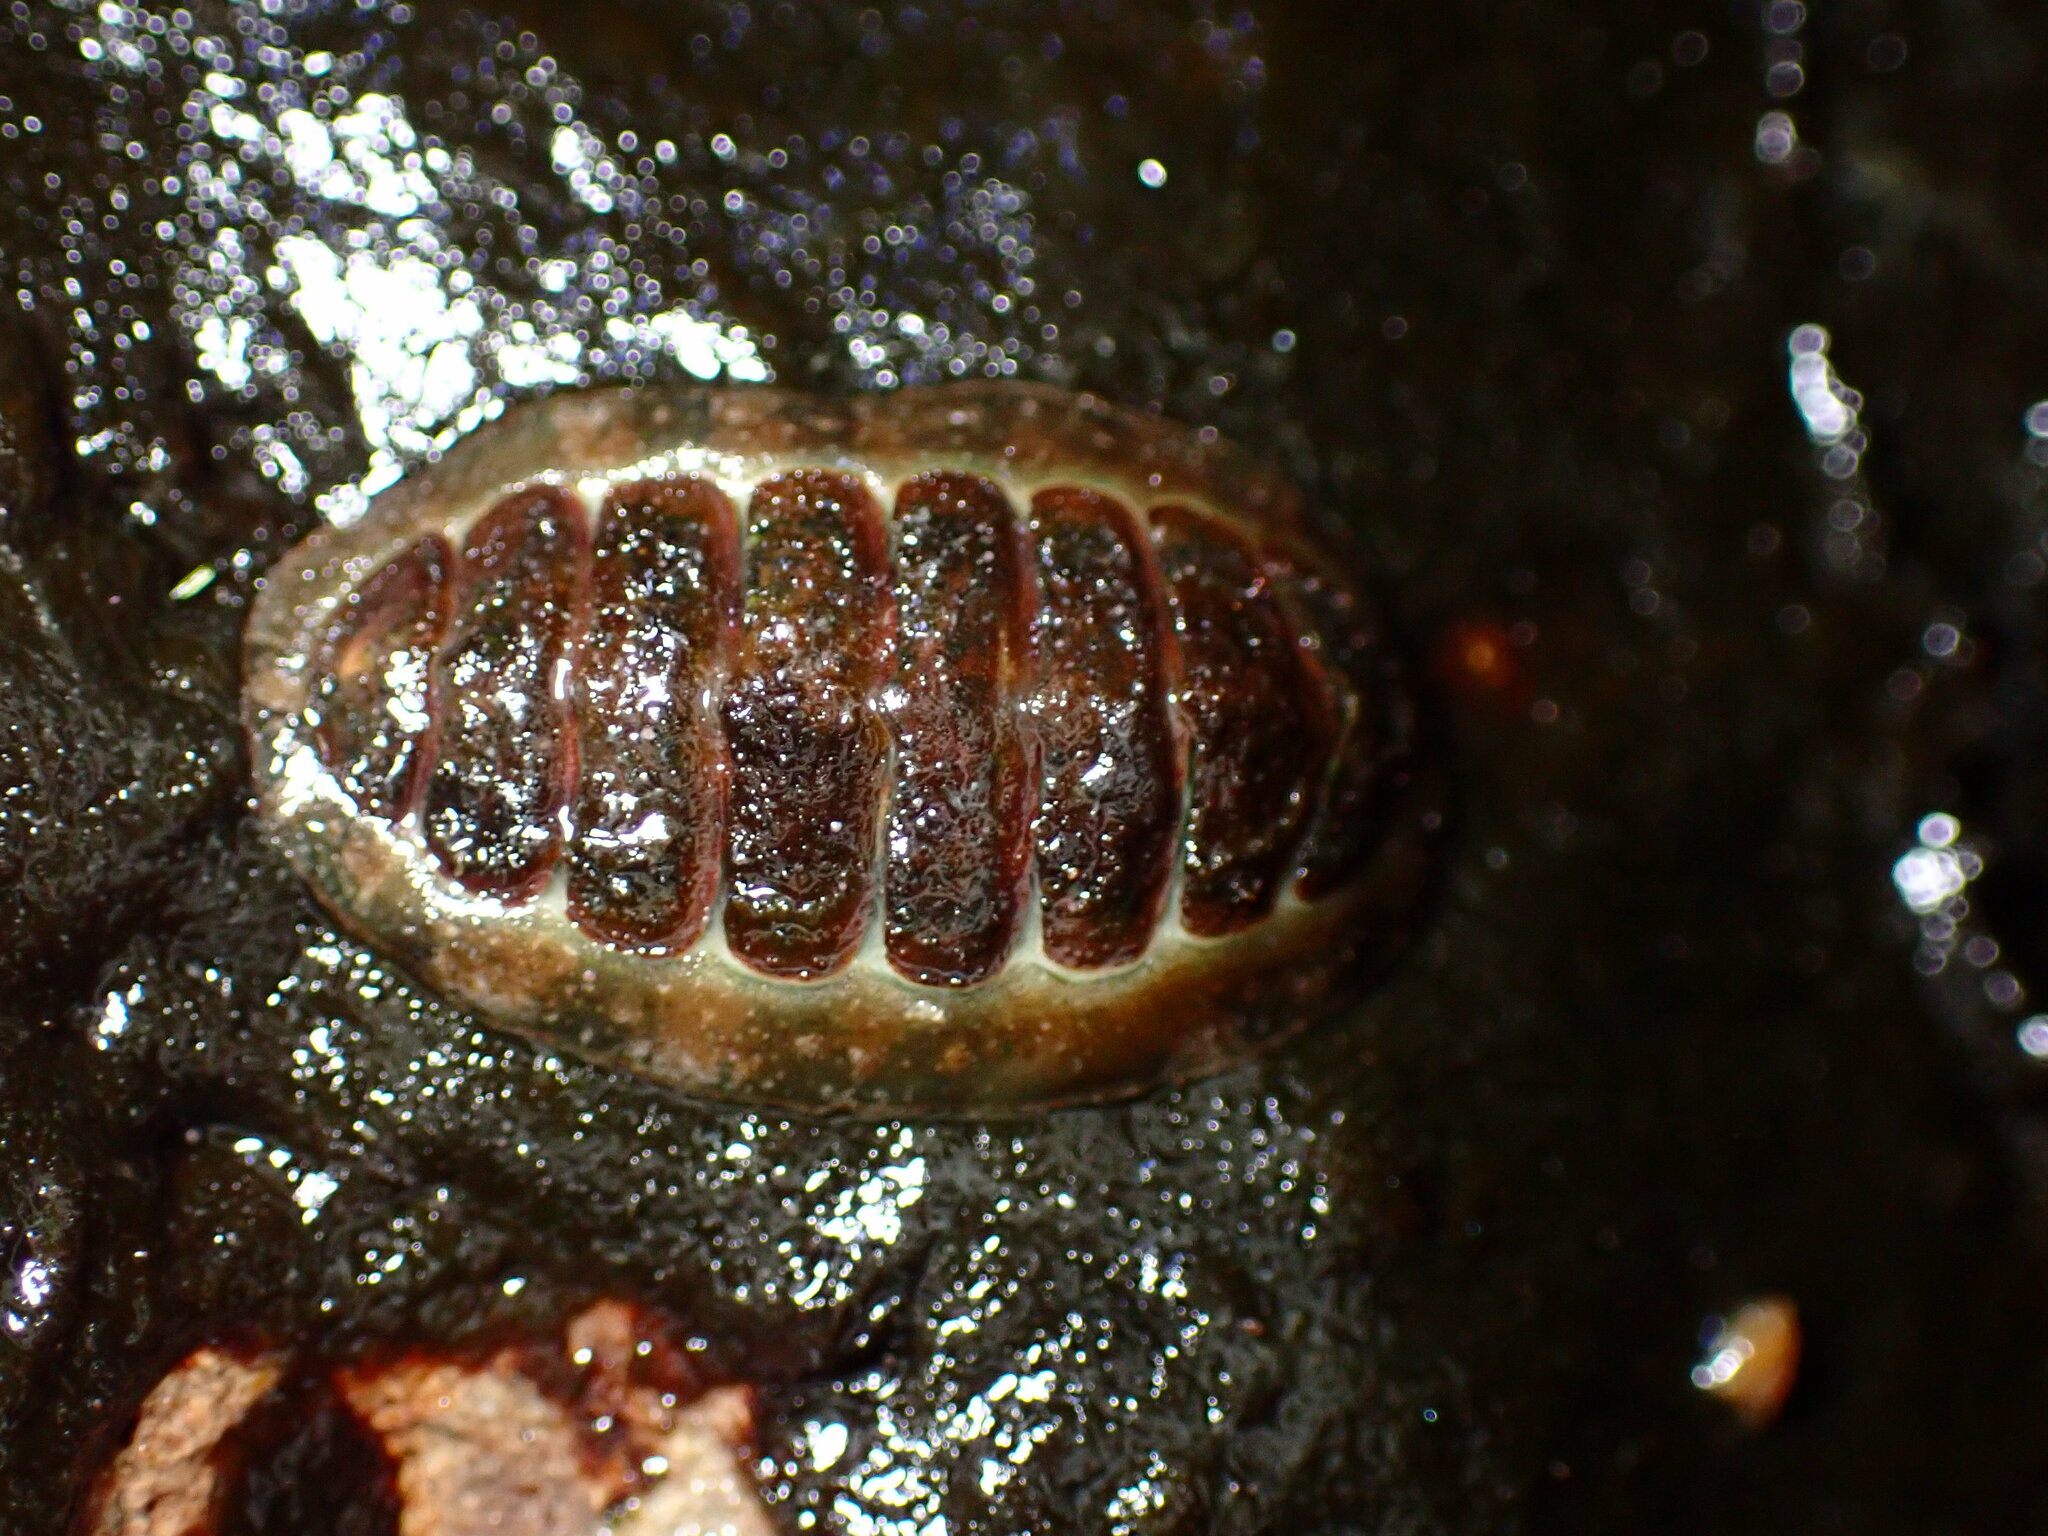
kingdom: Animalia
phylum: Mollusca
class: Polyplacophora
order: Chitonida
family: Tonicellidae
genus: Cyanoplax
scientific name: Cyanoplax hartwegii
